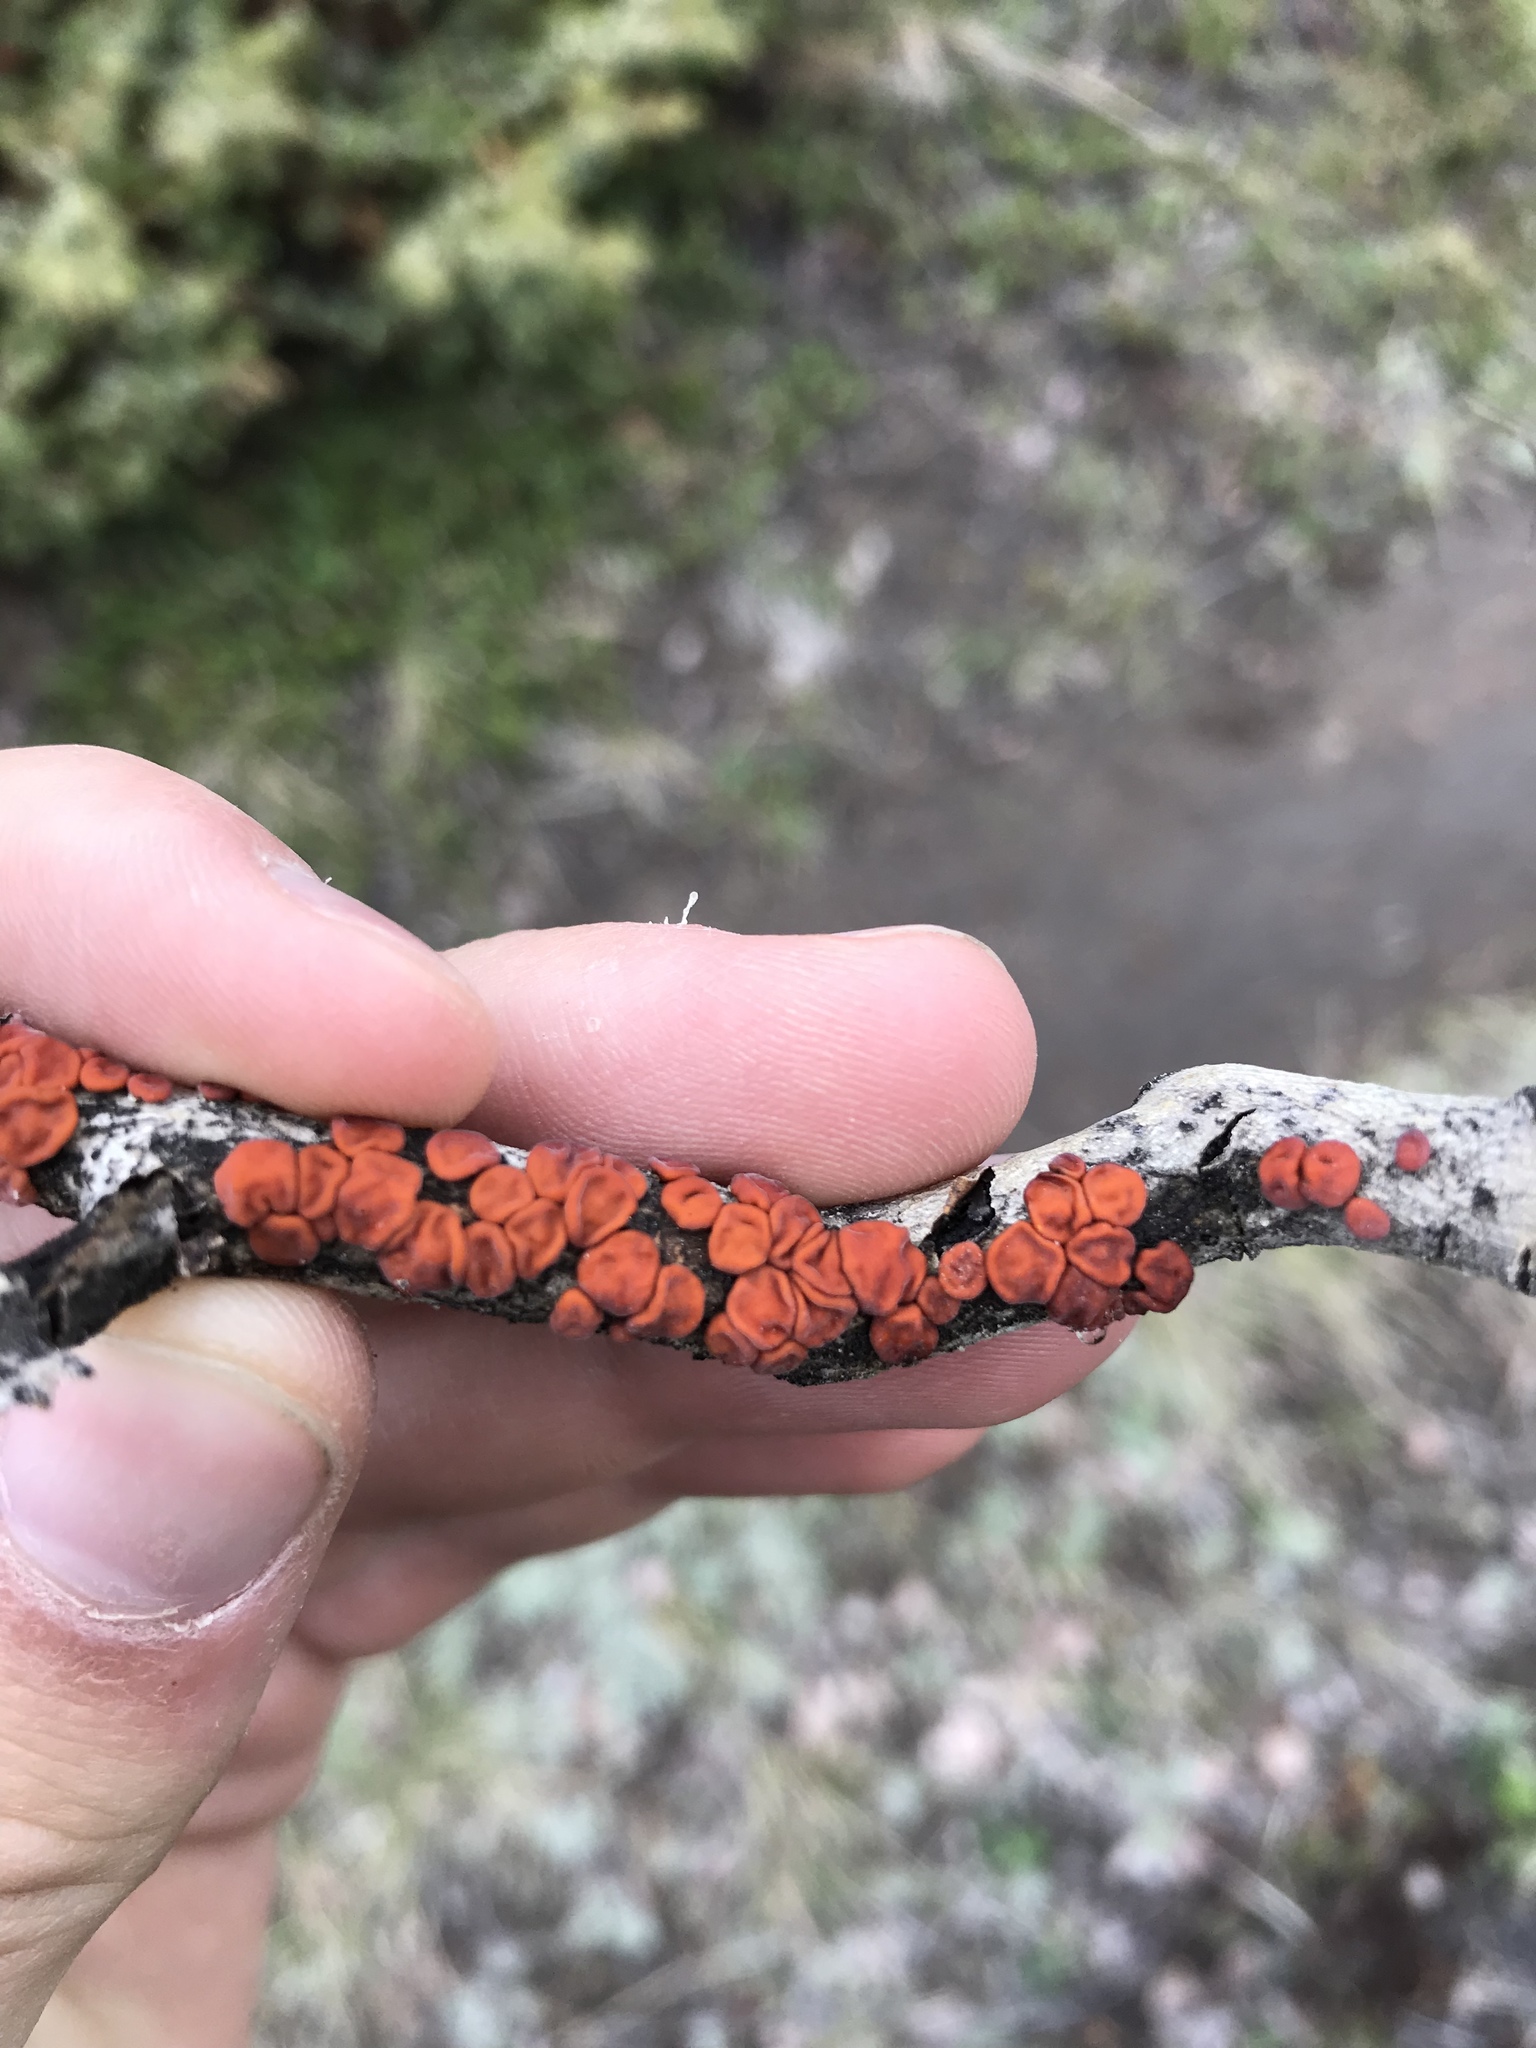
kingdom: Fungi
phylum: Basidiomycota
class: Agaricomycetes
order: Russulales
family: Peniophoraceae
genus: Peniophora
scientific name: Peniophora rufa
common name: Red tree brain fungus
